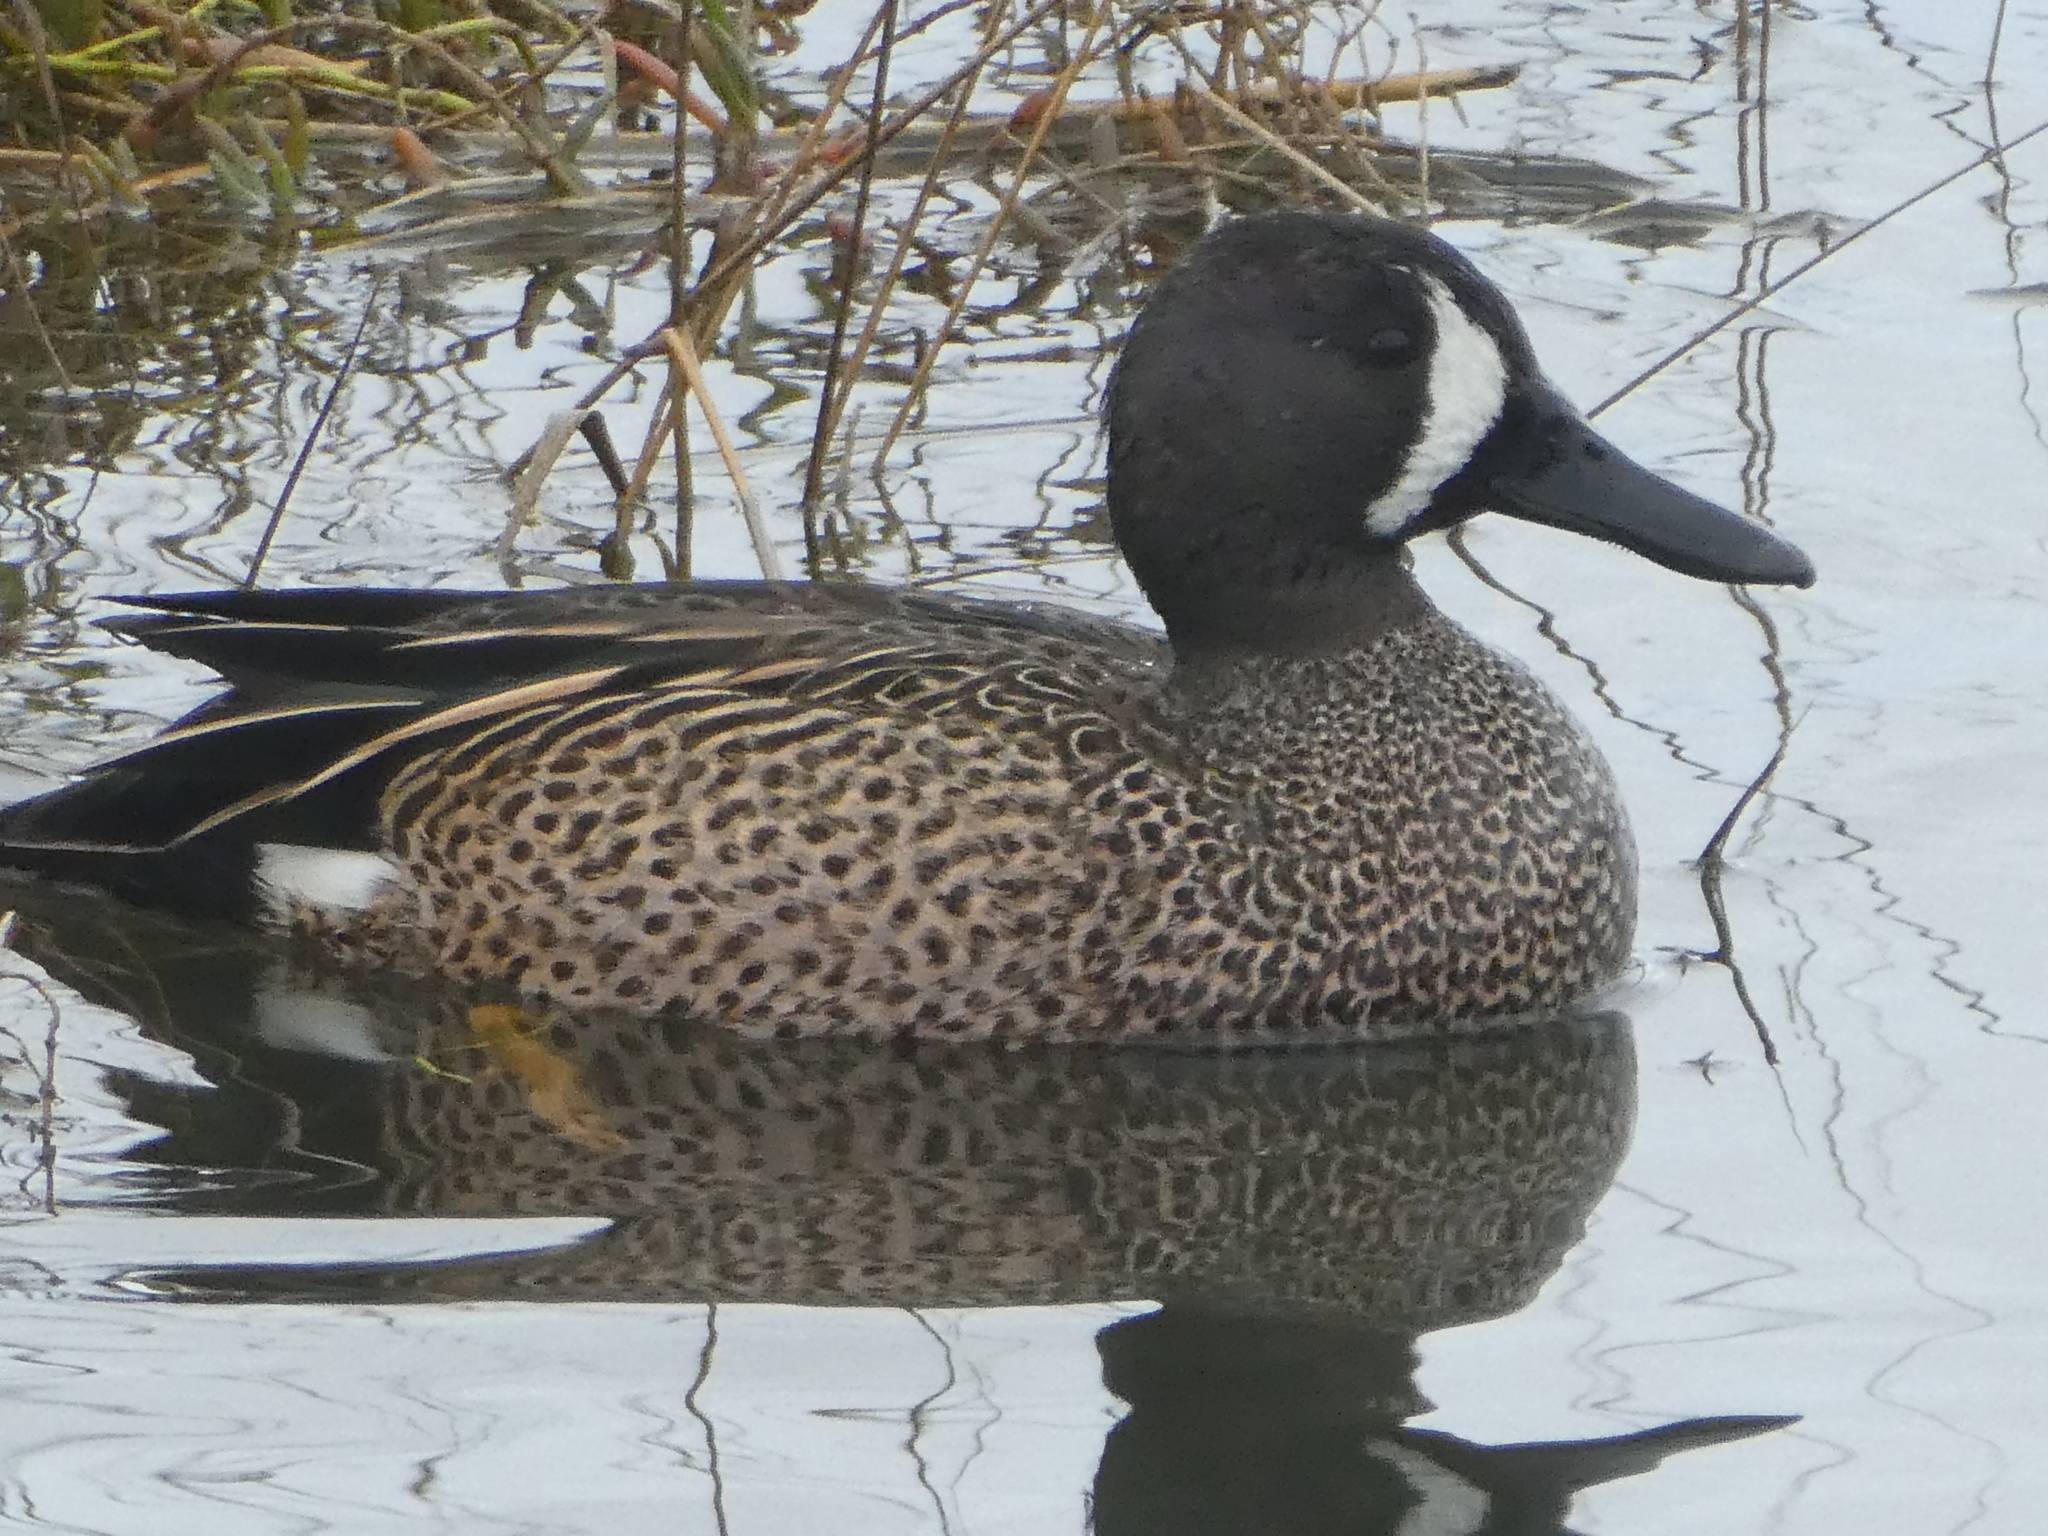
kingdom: Animalia
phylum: Chordata
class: Aves
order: Anseriformes
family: Anatidae
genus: Spatula
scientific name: Spatula discors
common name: Blue-winged teal
